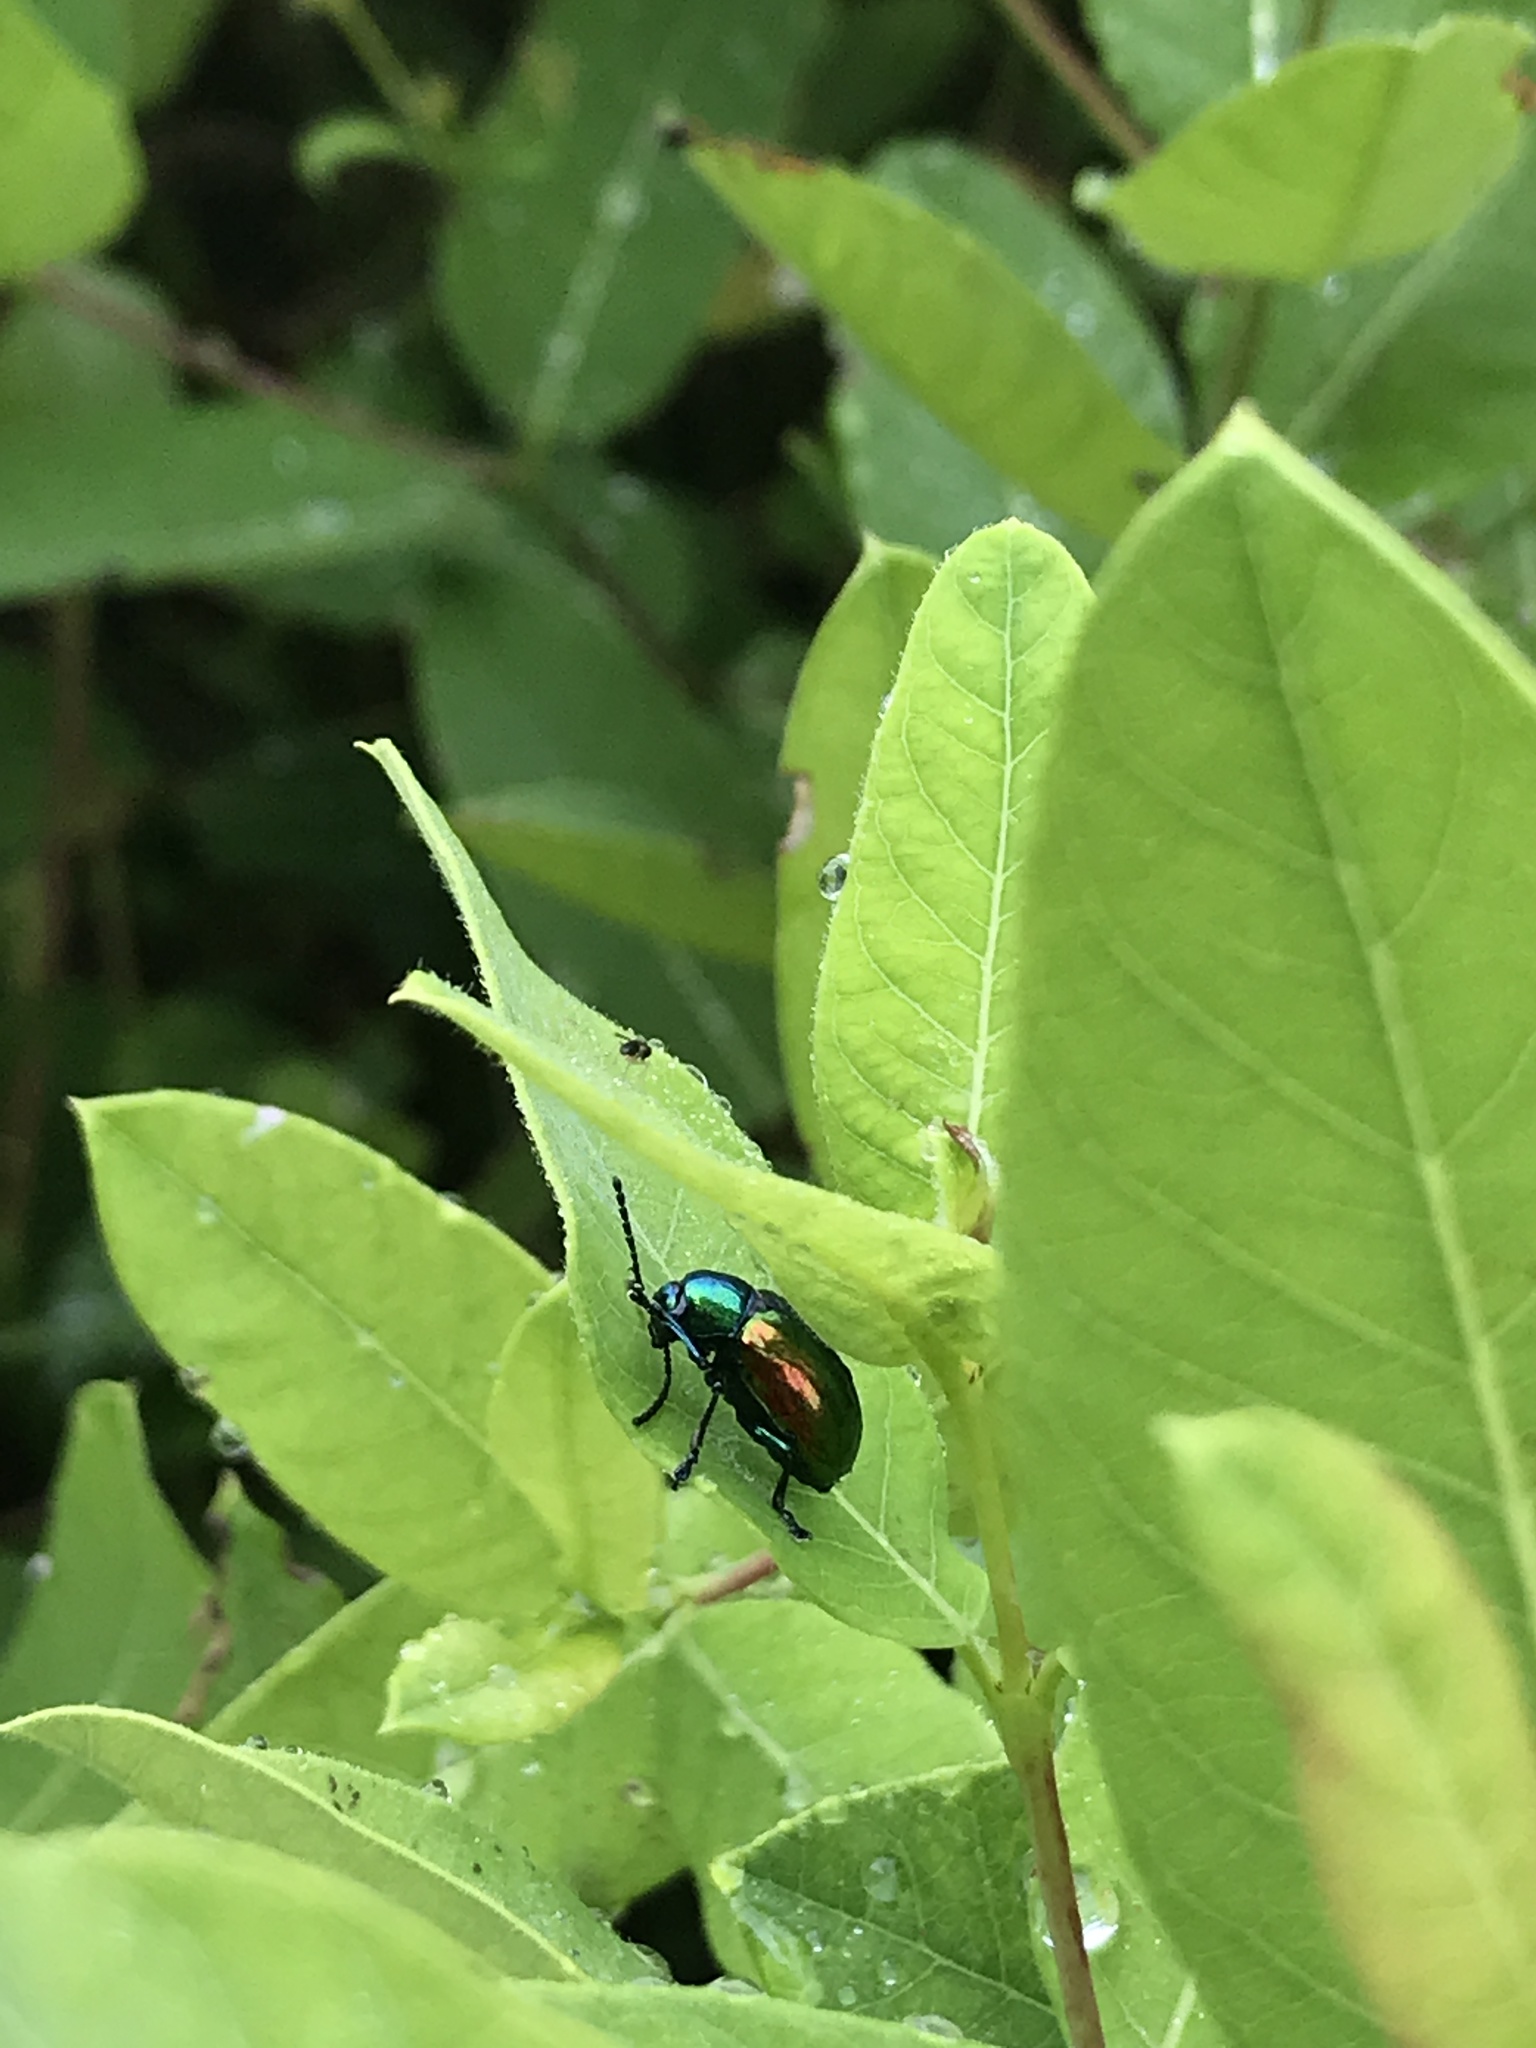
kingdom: Animalia
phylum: Arthropoda
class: Insecta
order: Coleoptera
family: Chrysomelidae
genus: Chrysochus
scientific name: Chrysochus auratus
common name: Dogbane leaf beetle
